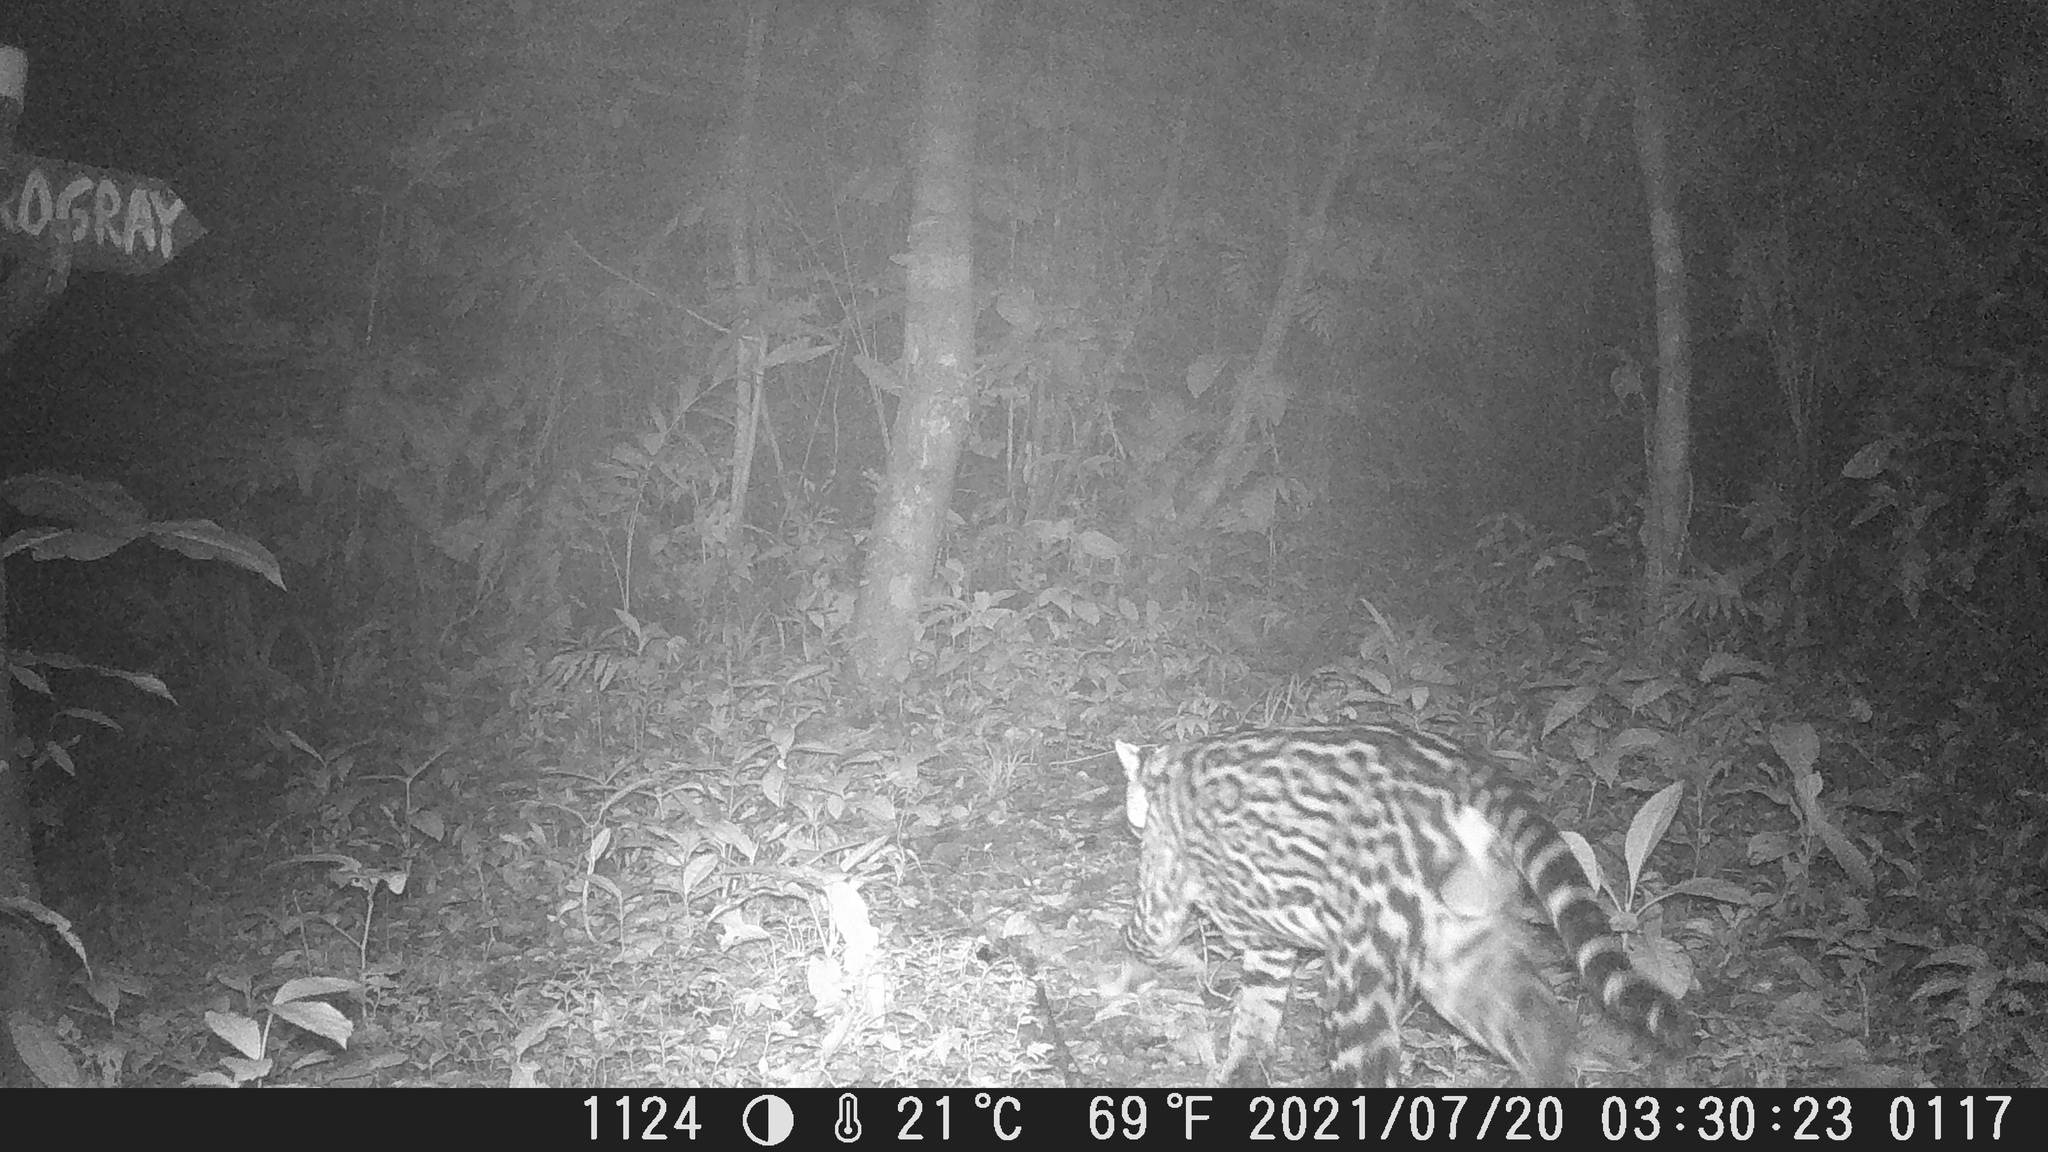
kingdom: Animalia
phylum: Chordata
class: Mammalia
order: Carnivora
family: Felidae
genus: Leopardus
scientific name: Leopardus pardalis
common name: Ocelot
